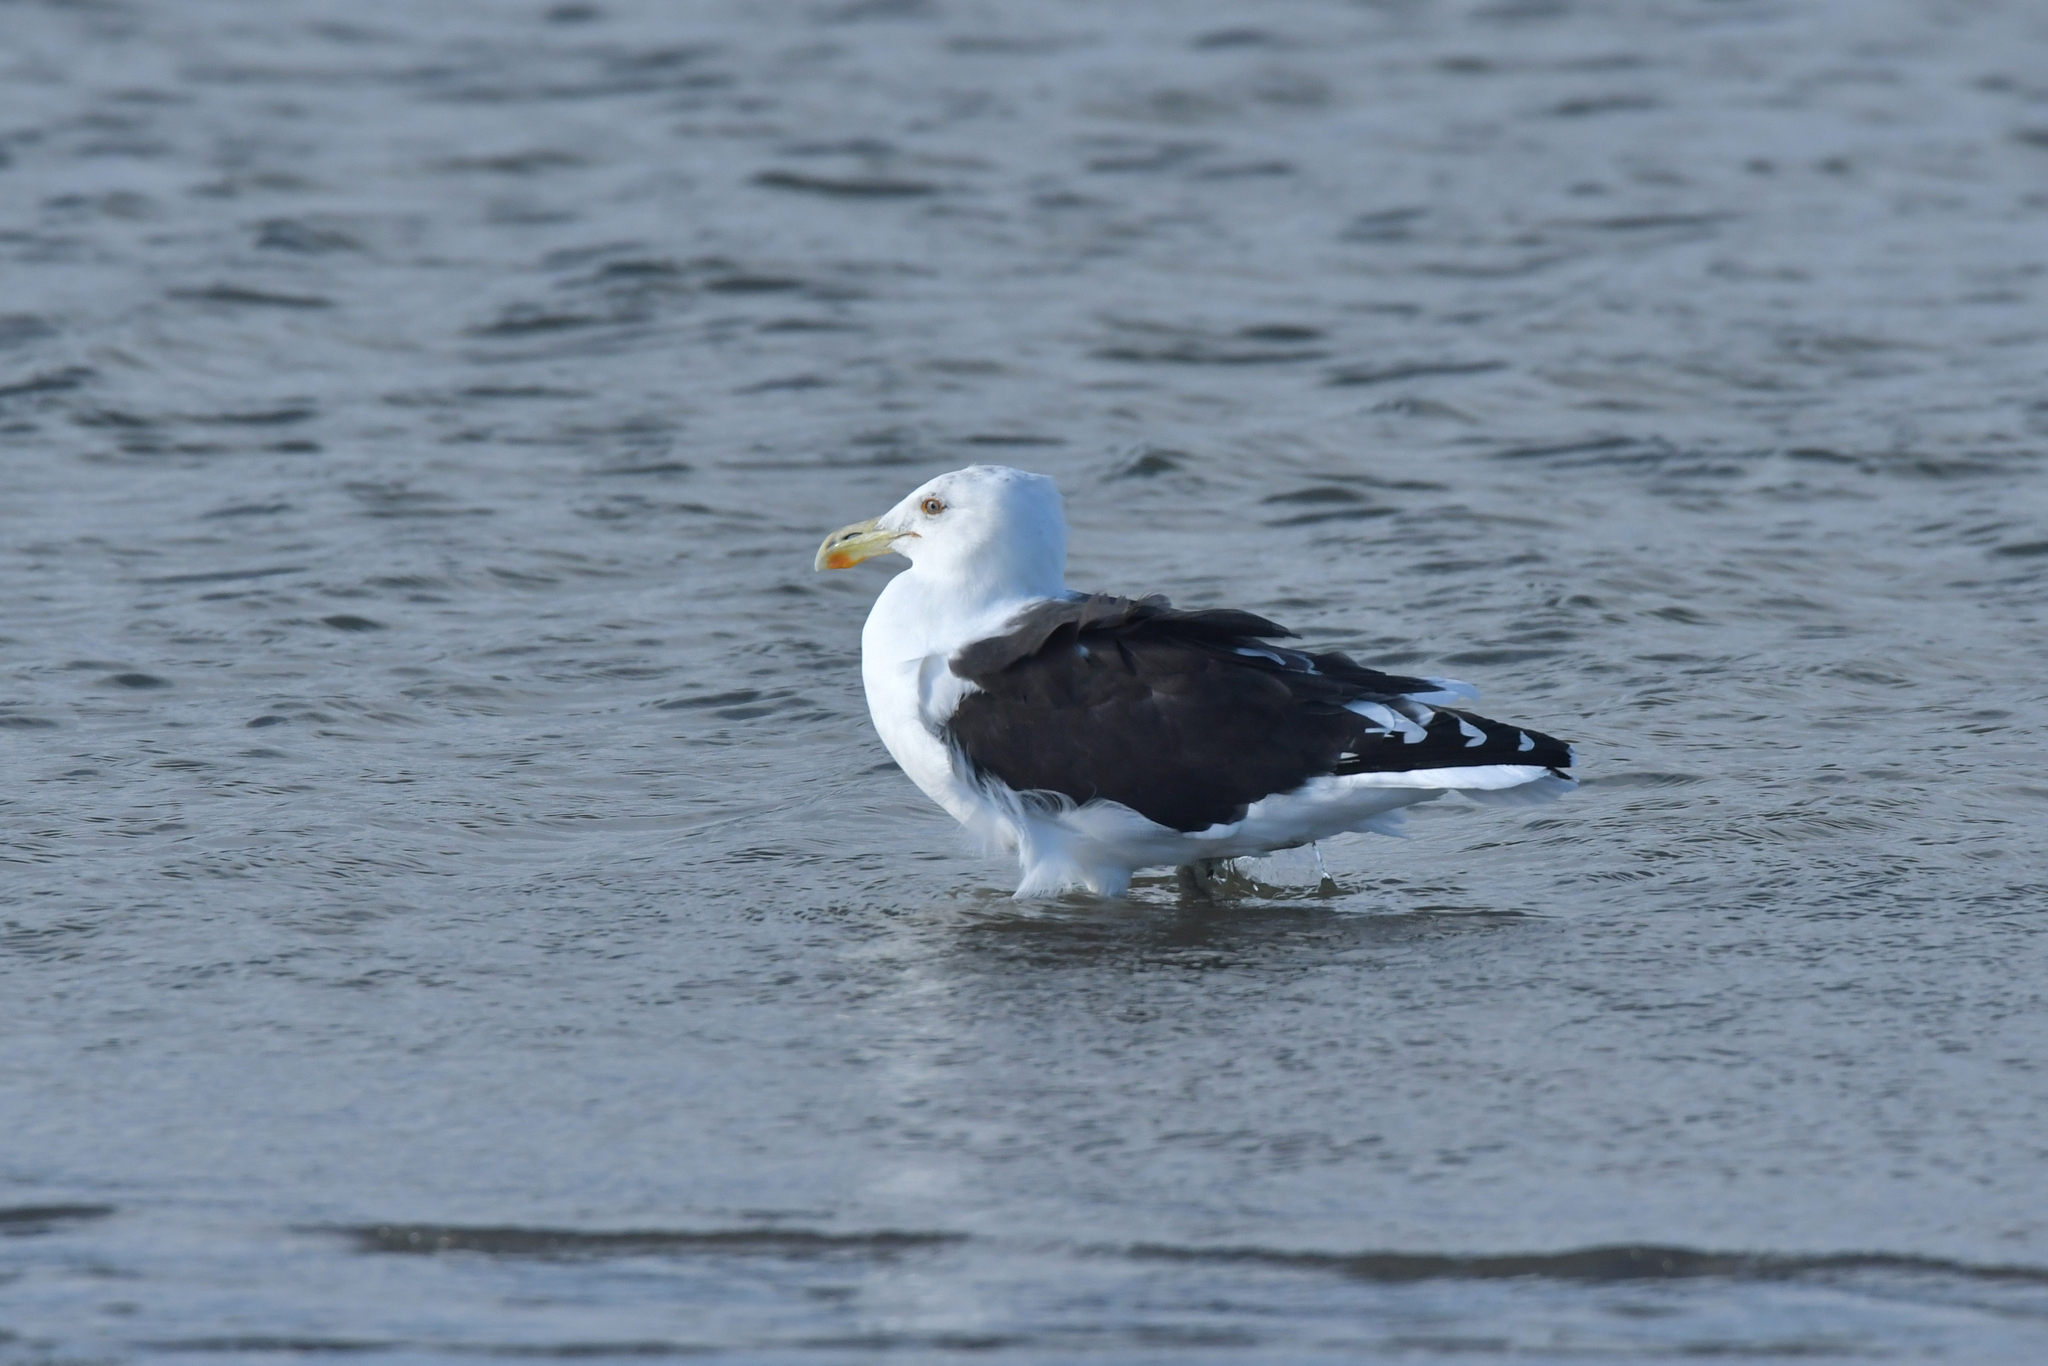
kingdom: Animalia
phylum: Chordata
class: Aves
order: Charadriiformes
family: Laridae
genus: Larus
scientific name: Larus dominicanus
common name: Kelp gull
